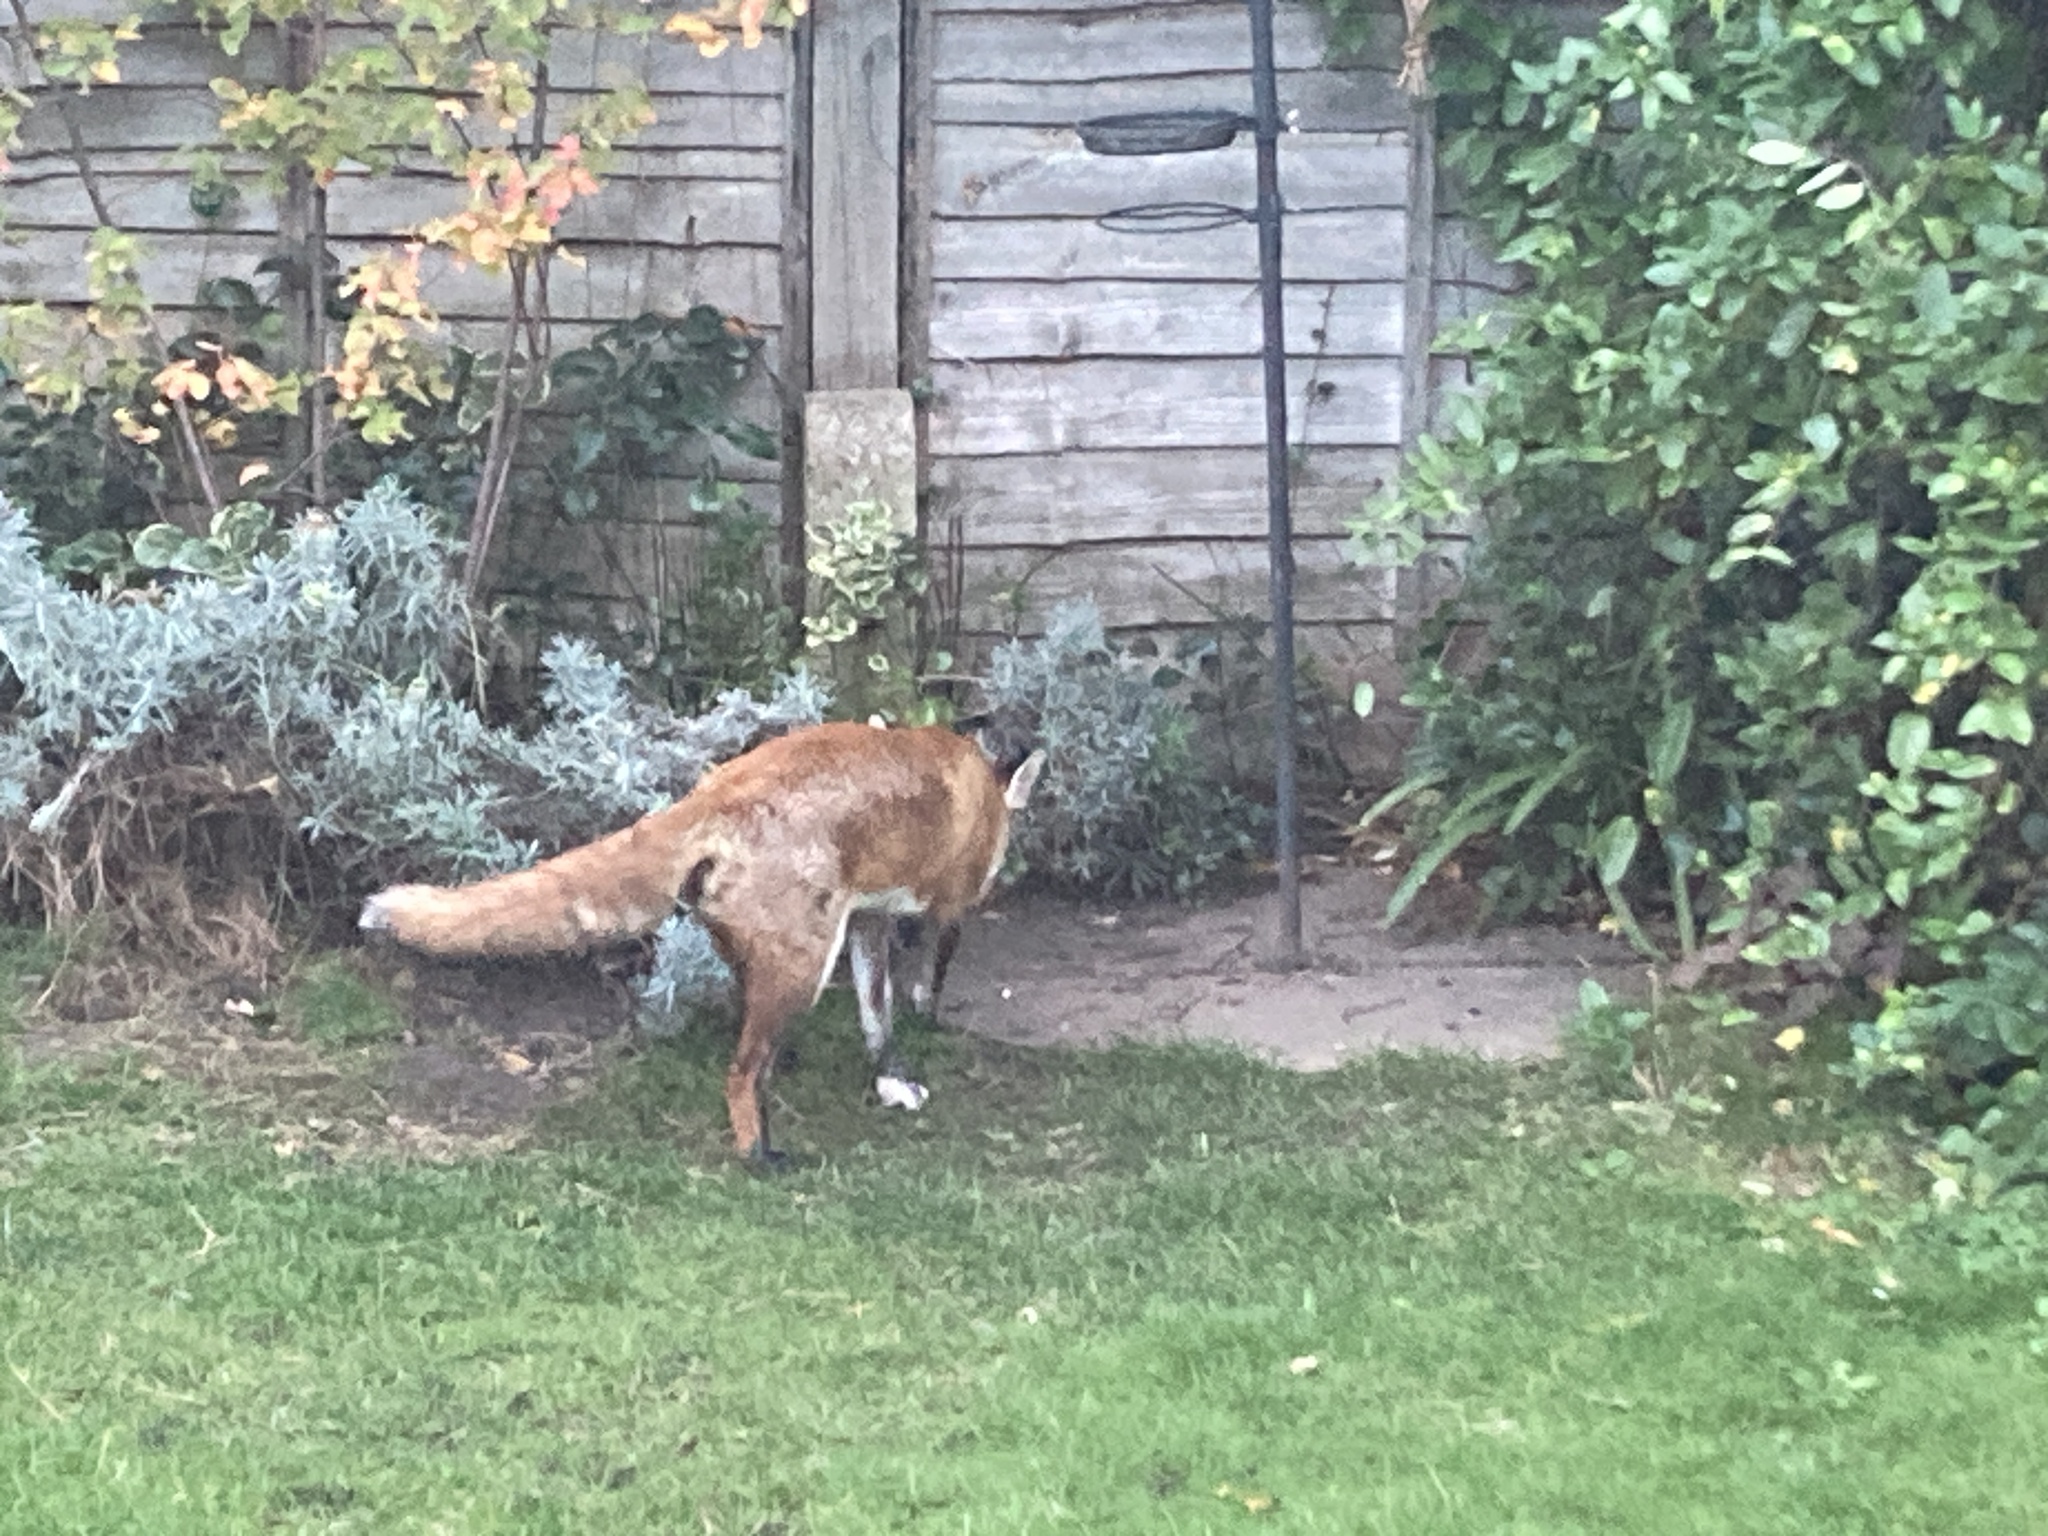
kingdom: Animalia
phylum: Chordata
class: Mammalia
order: Carnivora
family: Canidae
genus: Vulpes
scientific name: Vulpes vulpes
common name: Red fox
